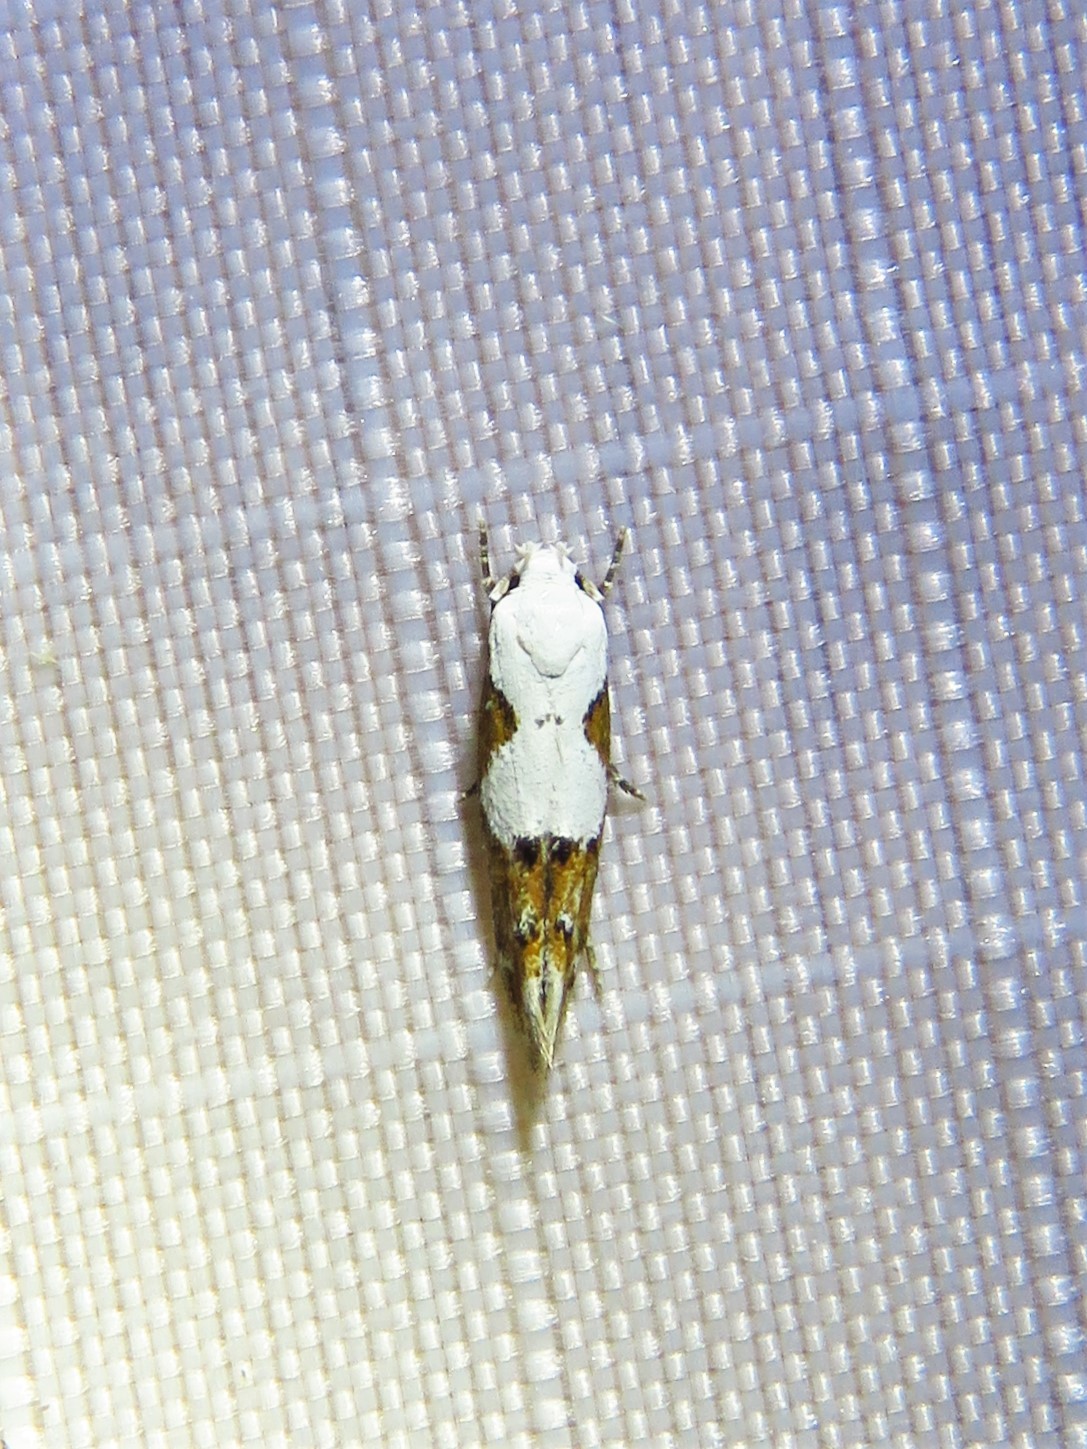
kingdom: Animalia
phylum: Arthropoda
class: Insecta
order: Lepidoptera
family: Momphidae
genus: Mompha
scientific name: Mompha circumscriptella
